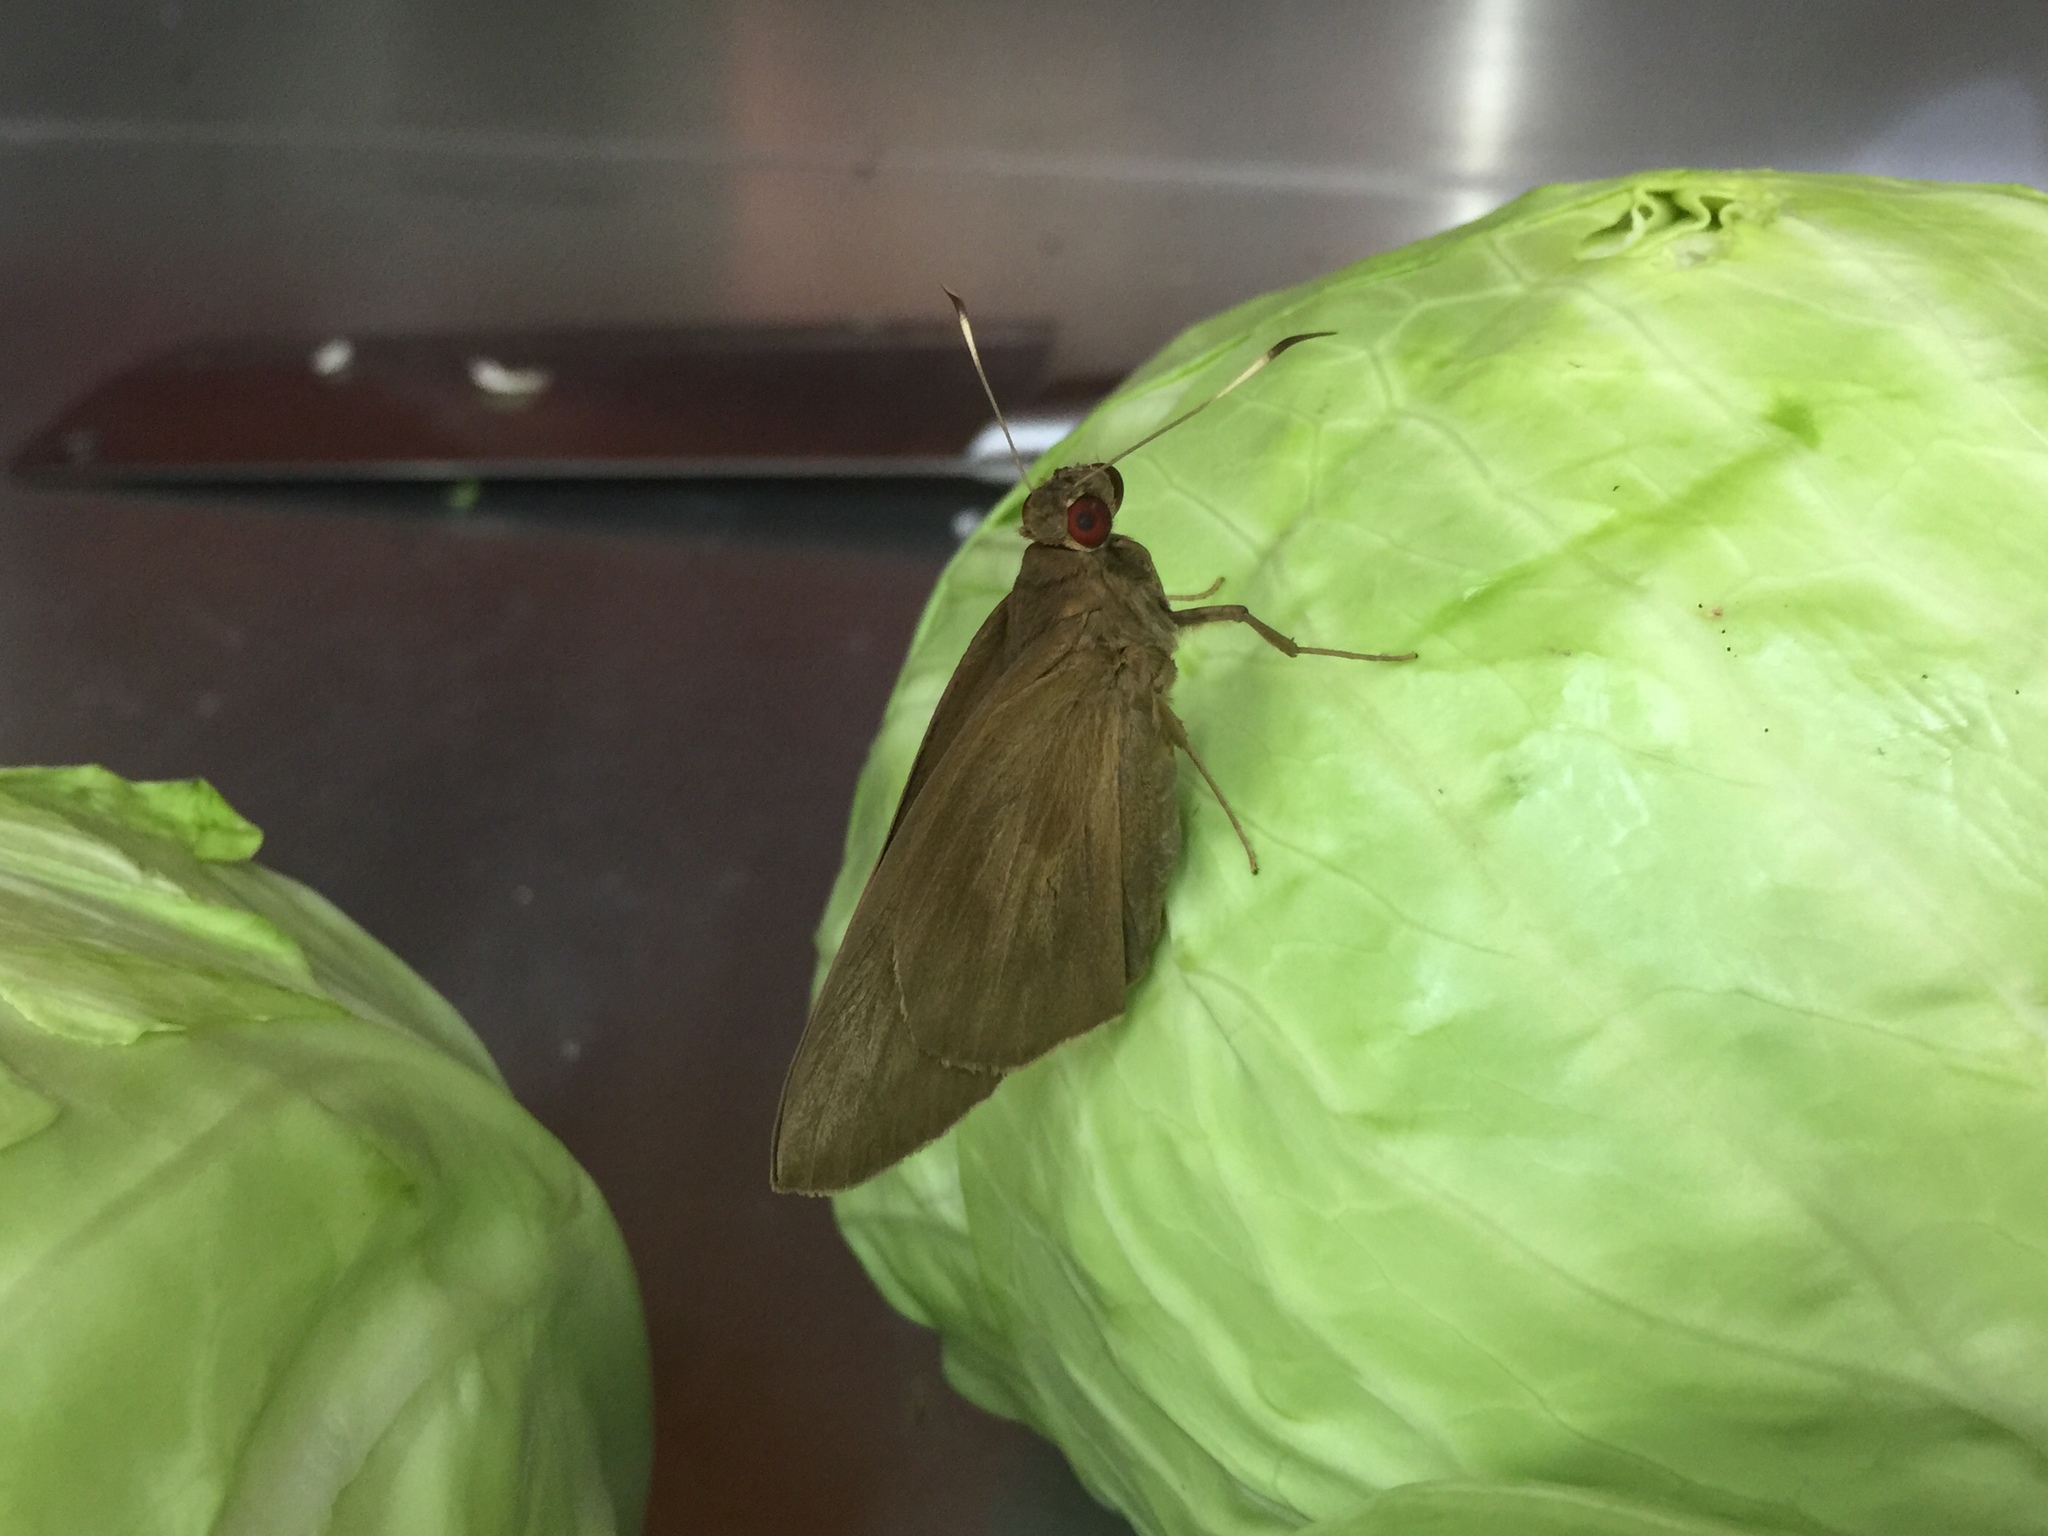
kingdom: Animalia
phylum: Arthropoda
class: Insecta
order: Lepidoptera
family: Hesperiidae
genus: Erionota
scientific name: Erionota torus
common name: Rounded palm-redeye
